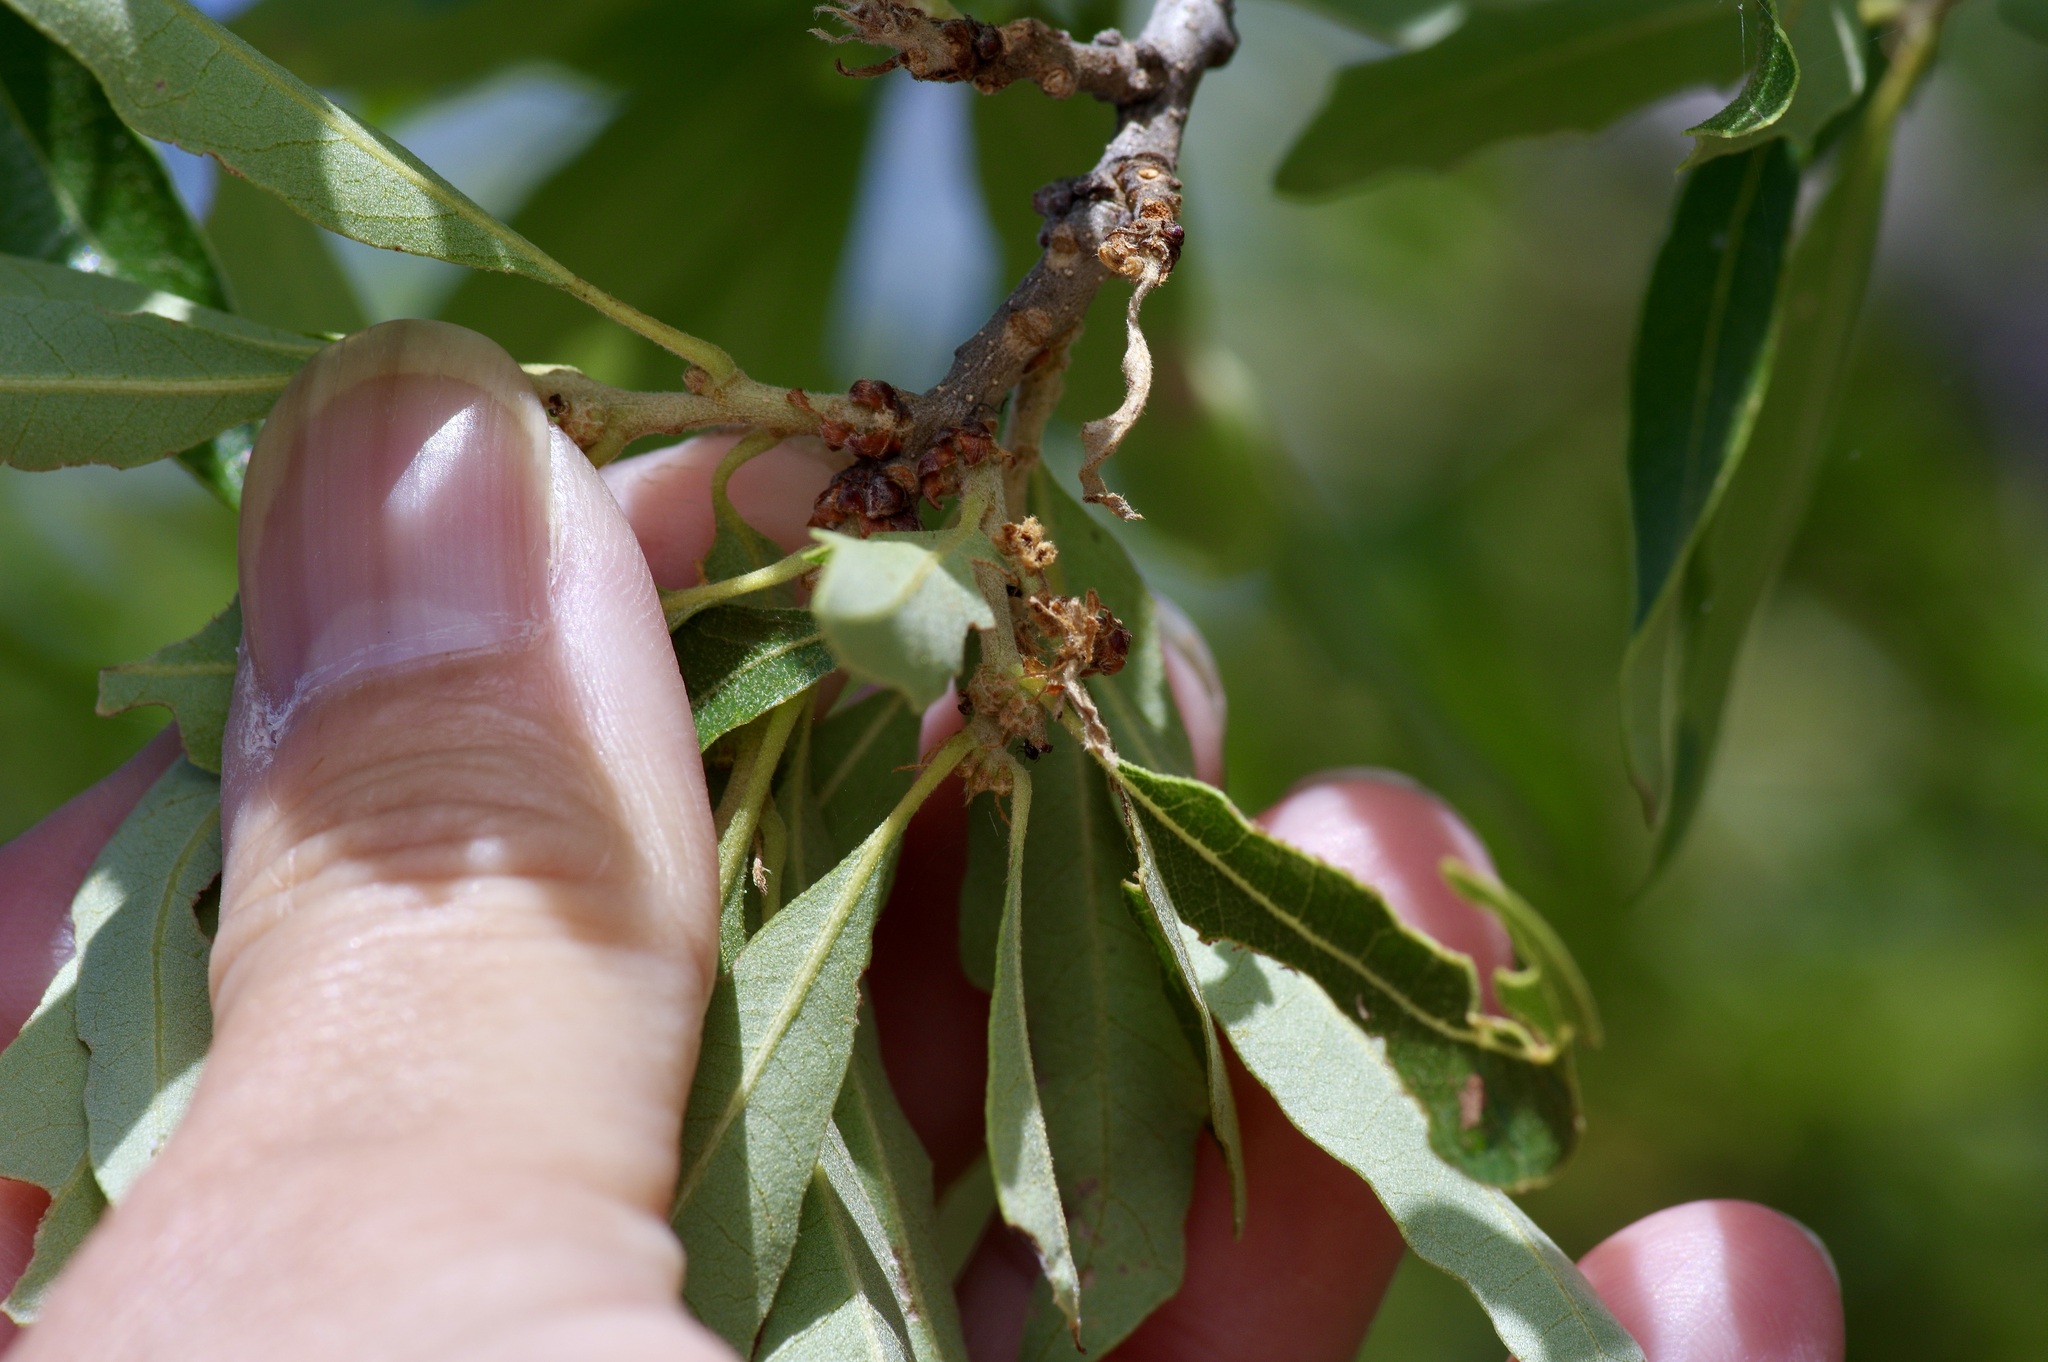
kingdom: Plantae
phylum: Tracheophyta
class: Magnoliopsida
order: Fagales
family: Fagaceae
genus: Quercus
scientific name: Quercus vaseyana
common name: Sandpaper oak
